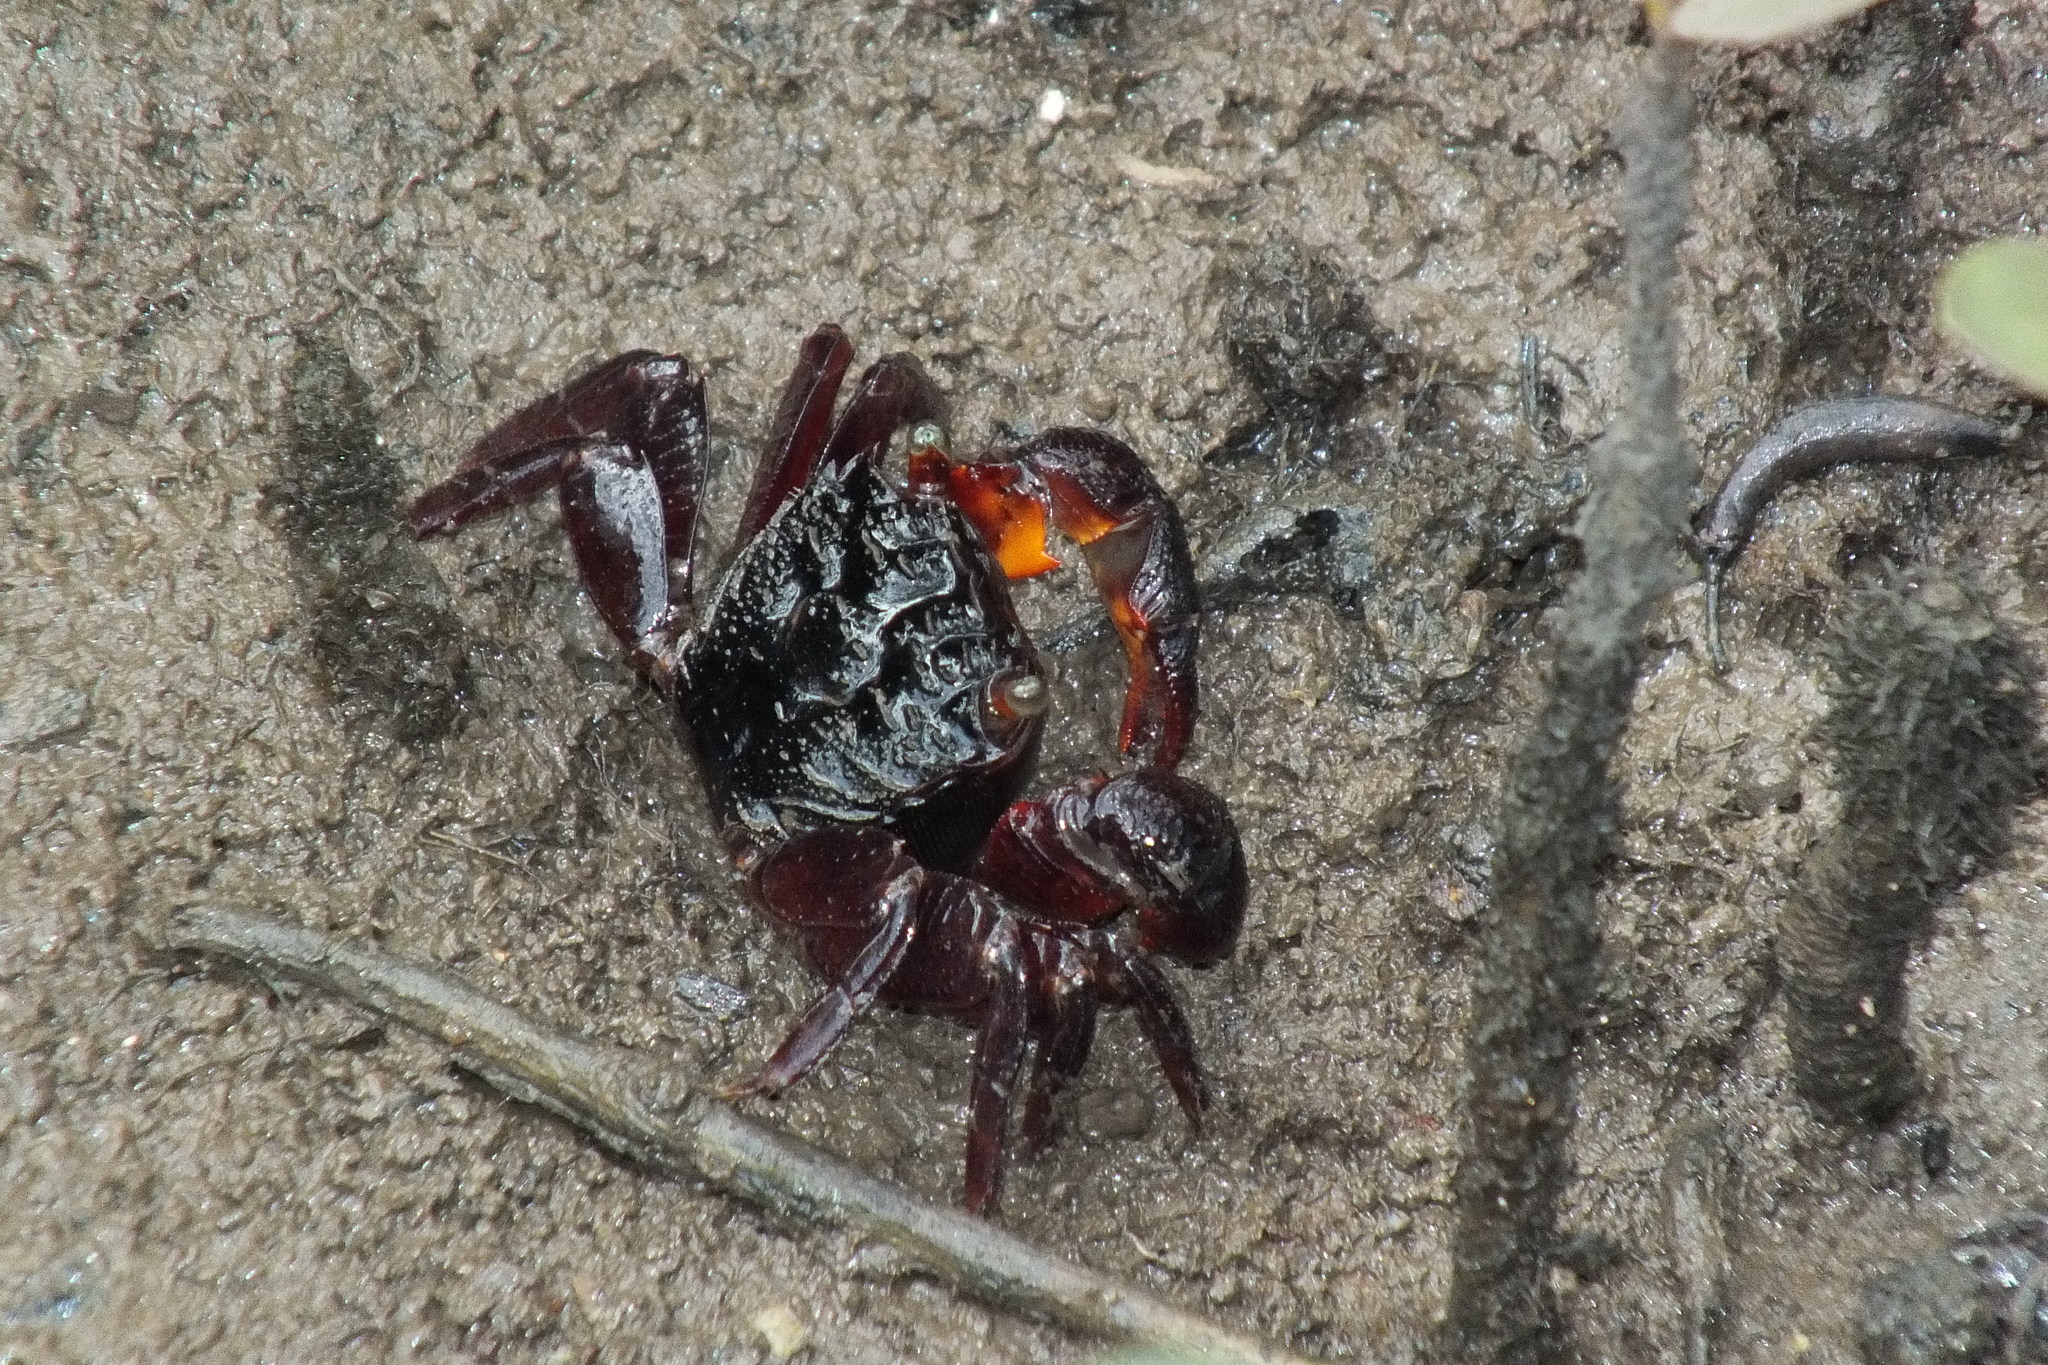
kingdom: Animalia
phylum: Arthropoda
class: Malacostraca
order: Decapoda
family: Sesarmidae
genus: Parasesarma
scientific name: Parasesarma messa
